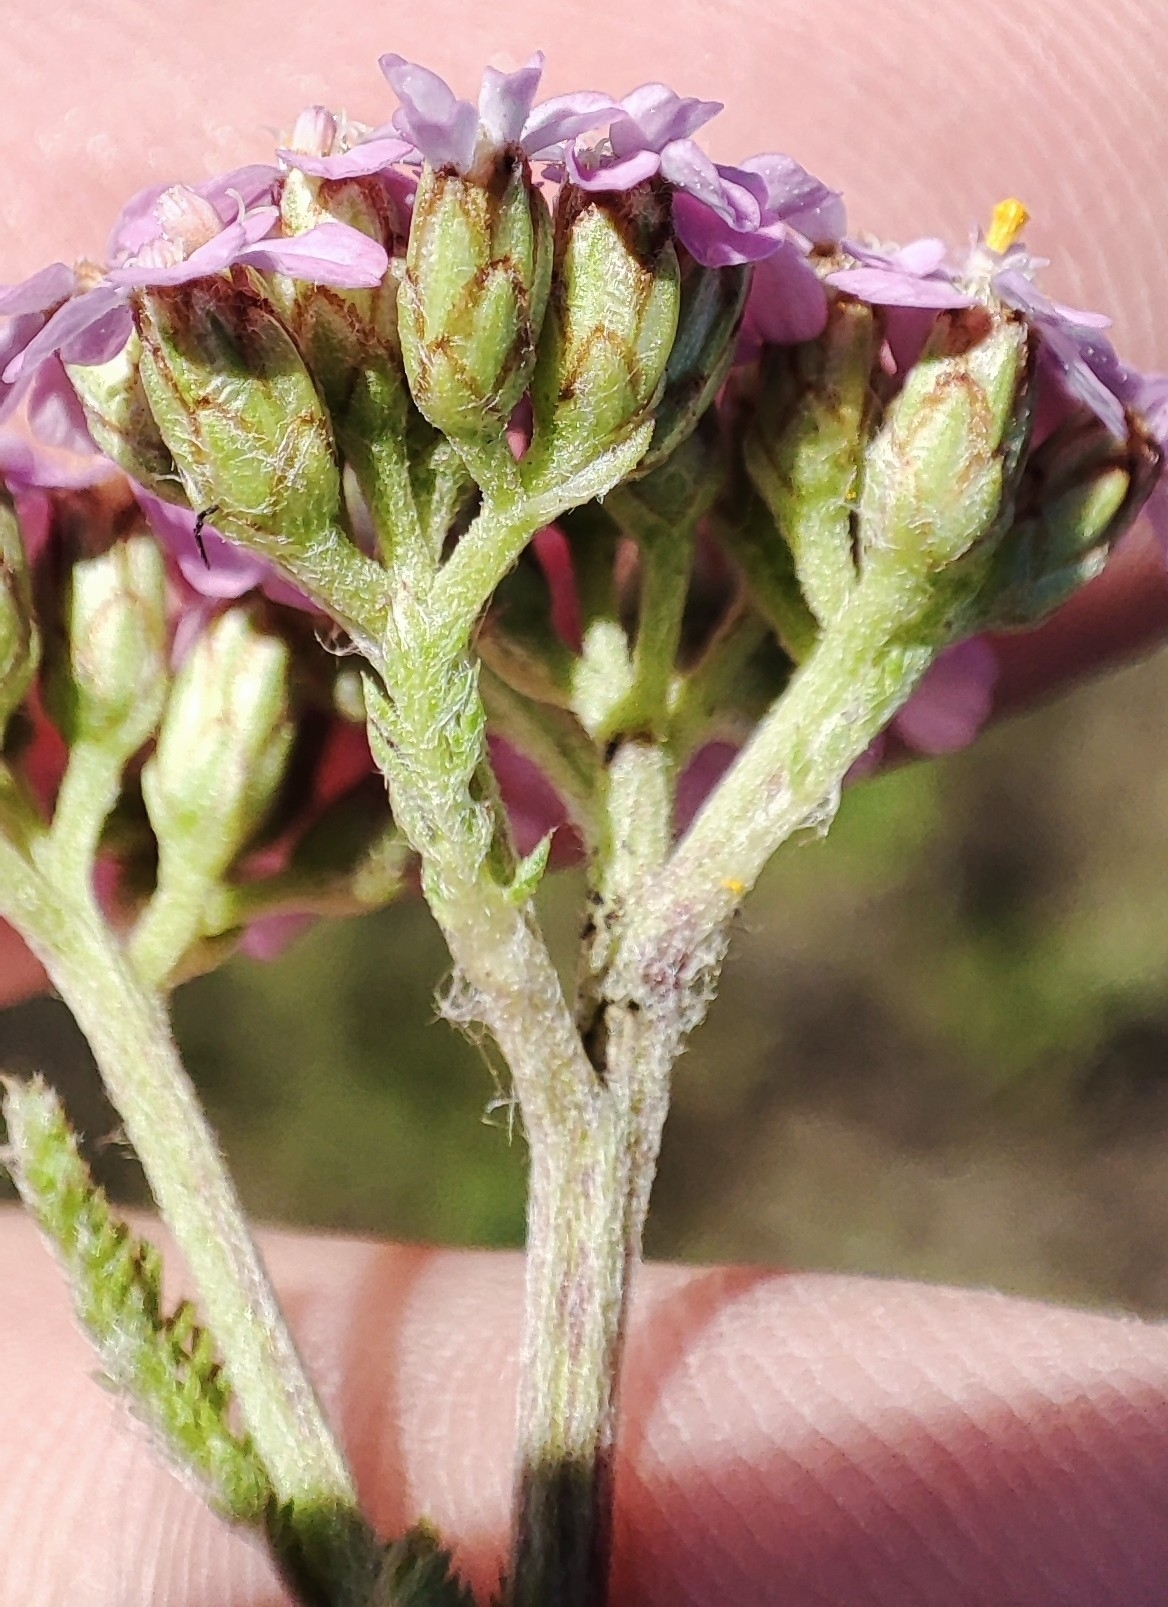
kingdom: Plantae
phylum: Tracheophyta
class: Magnoliopsida
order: Asterales
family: Asteraceae
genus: Achillea
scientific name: Achillea asiatica
